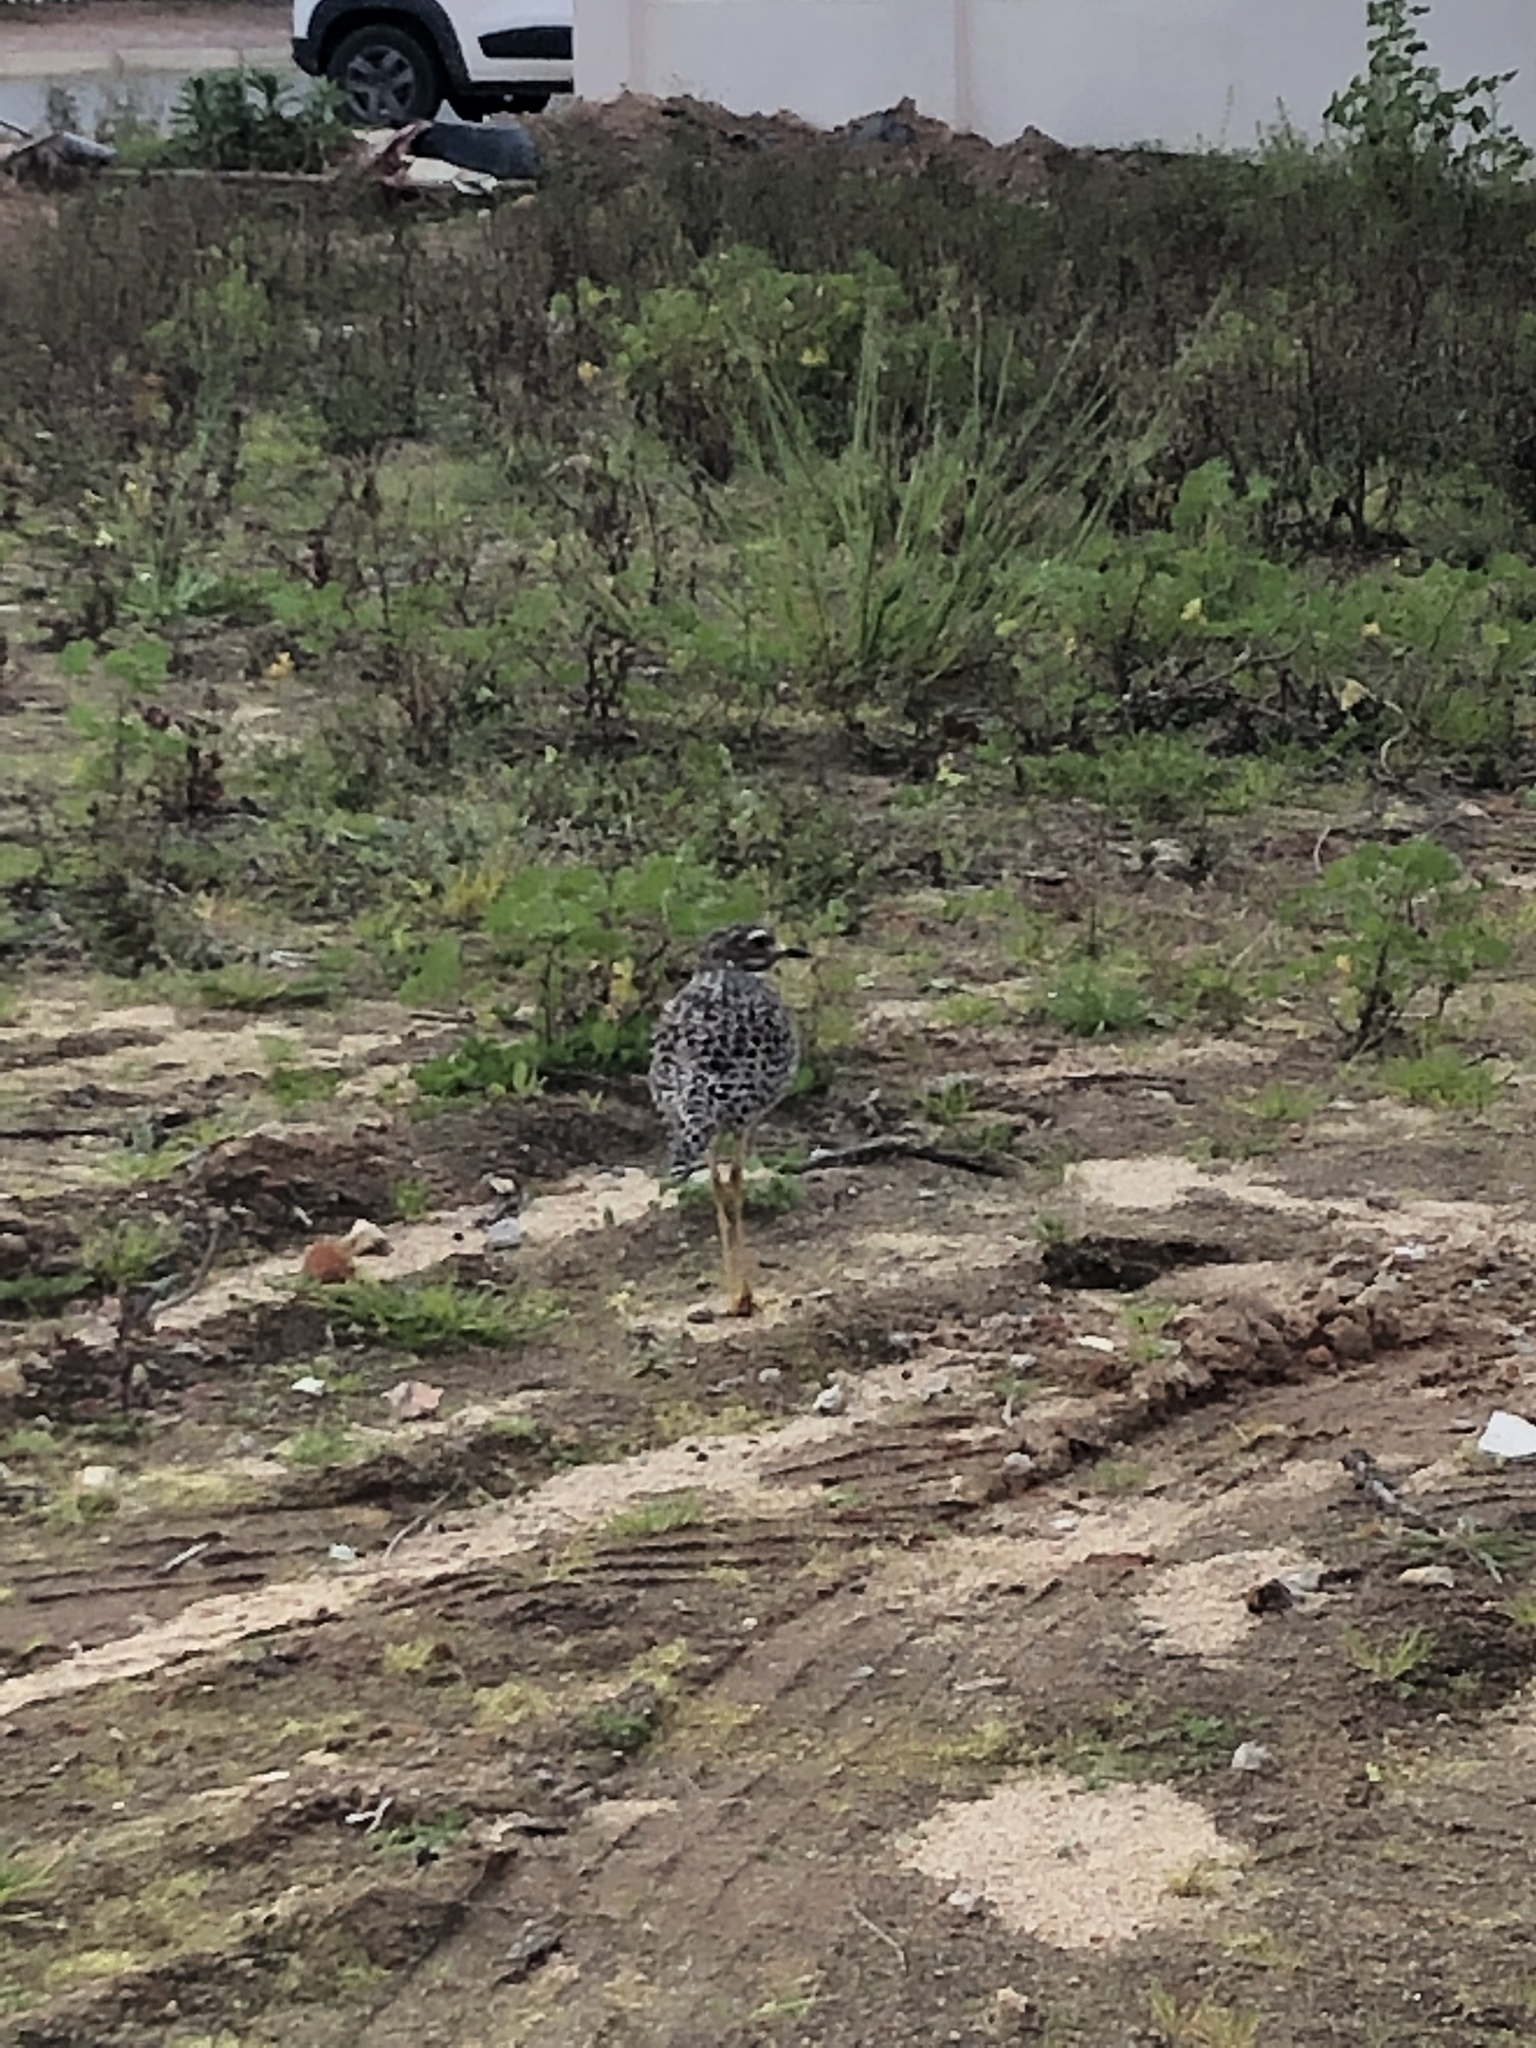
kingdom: Animalia
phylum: Chordata
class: Aves
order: Charadriiformes
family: Burhinidae
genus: Burhinus
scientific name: Burhinus capensis
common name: Spotted thick-knee
